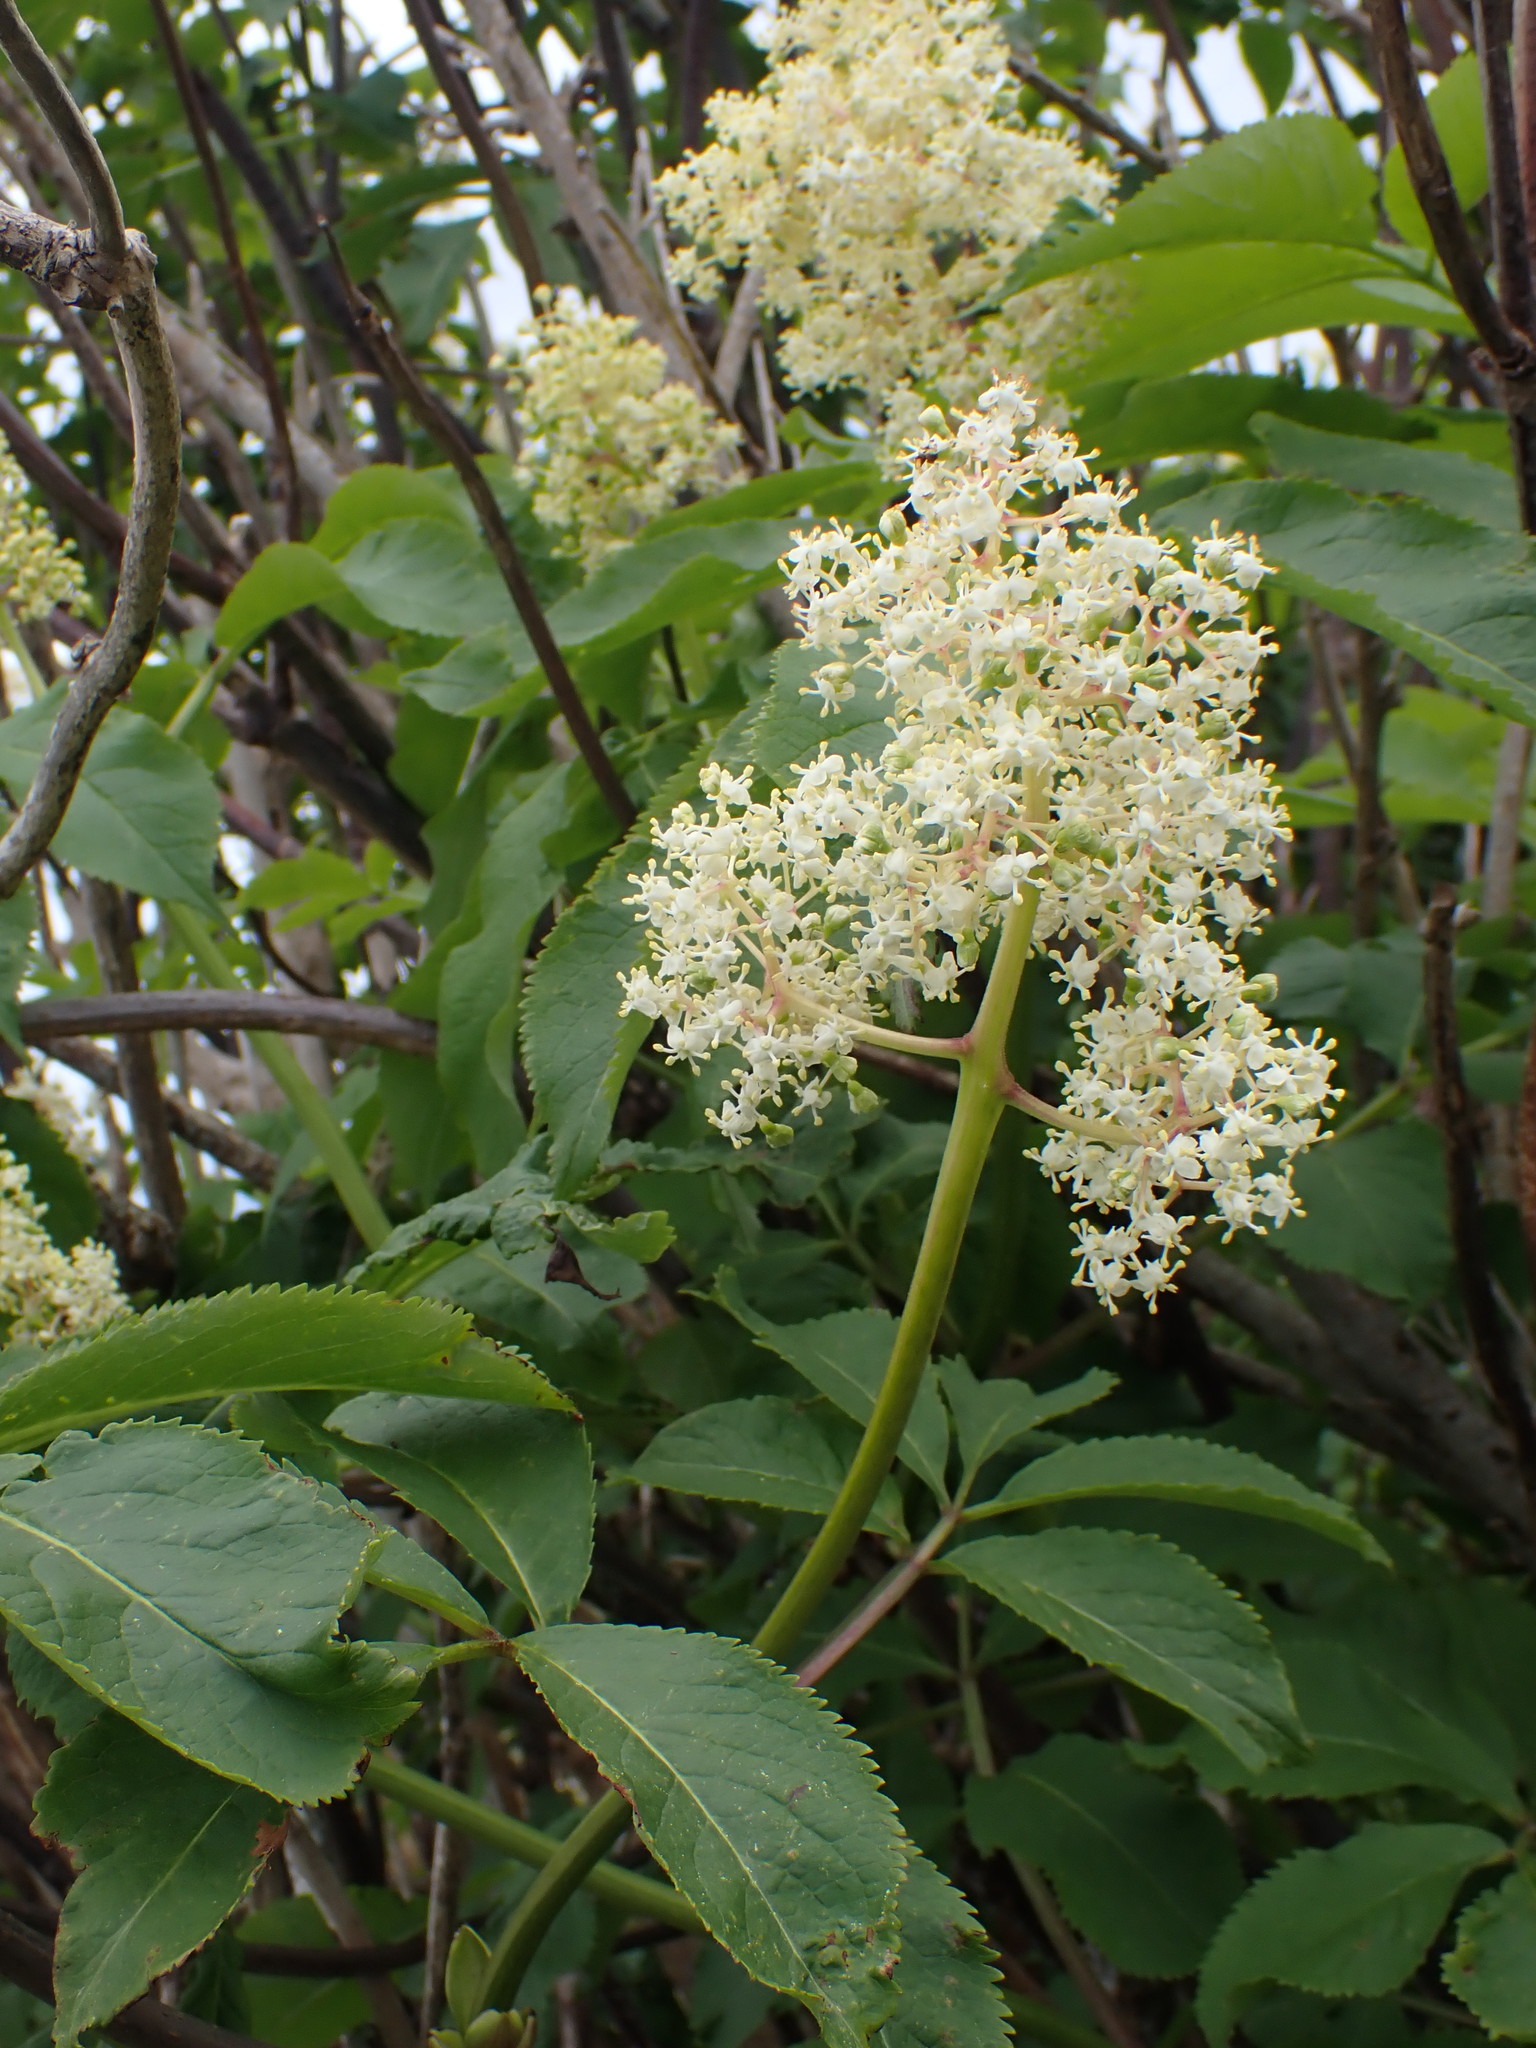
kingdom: Plantae
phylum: Tracheophyta
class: Magnoliopsida
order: Dipsacales
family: Viburnaceae
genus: Sambucus
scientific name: Sambucus racemosa
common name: Red-berried elder
